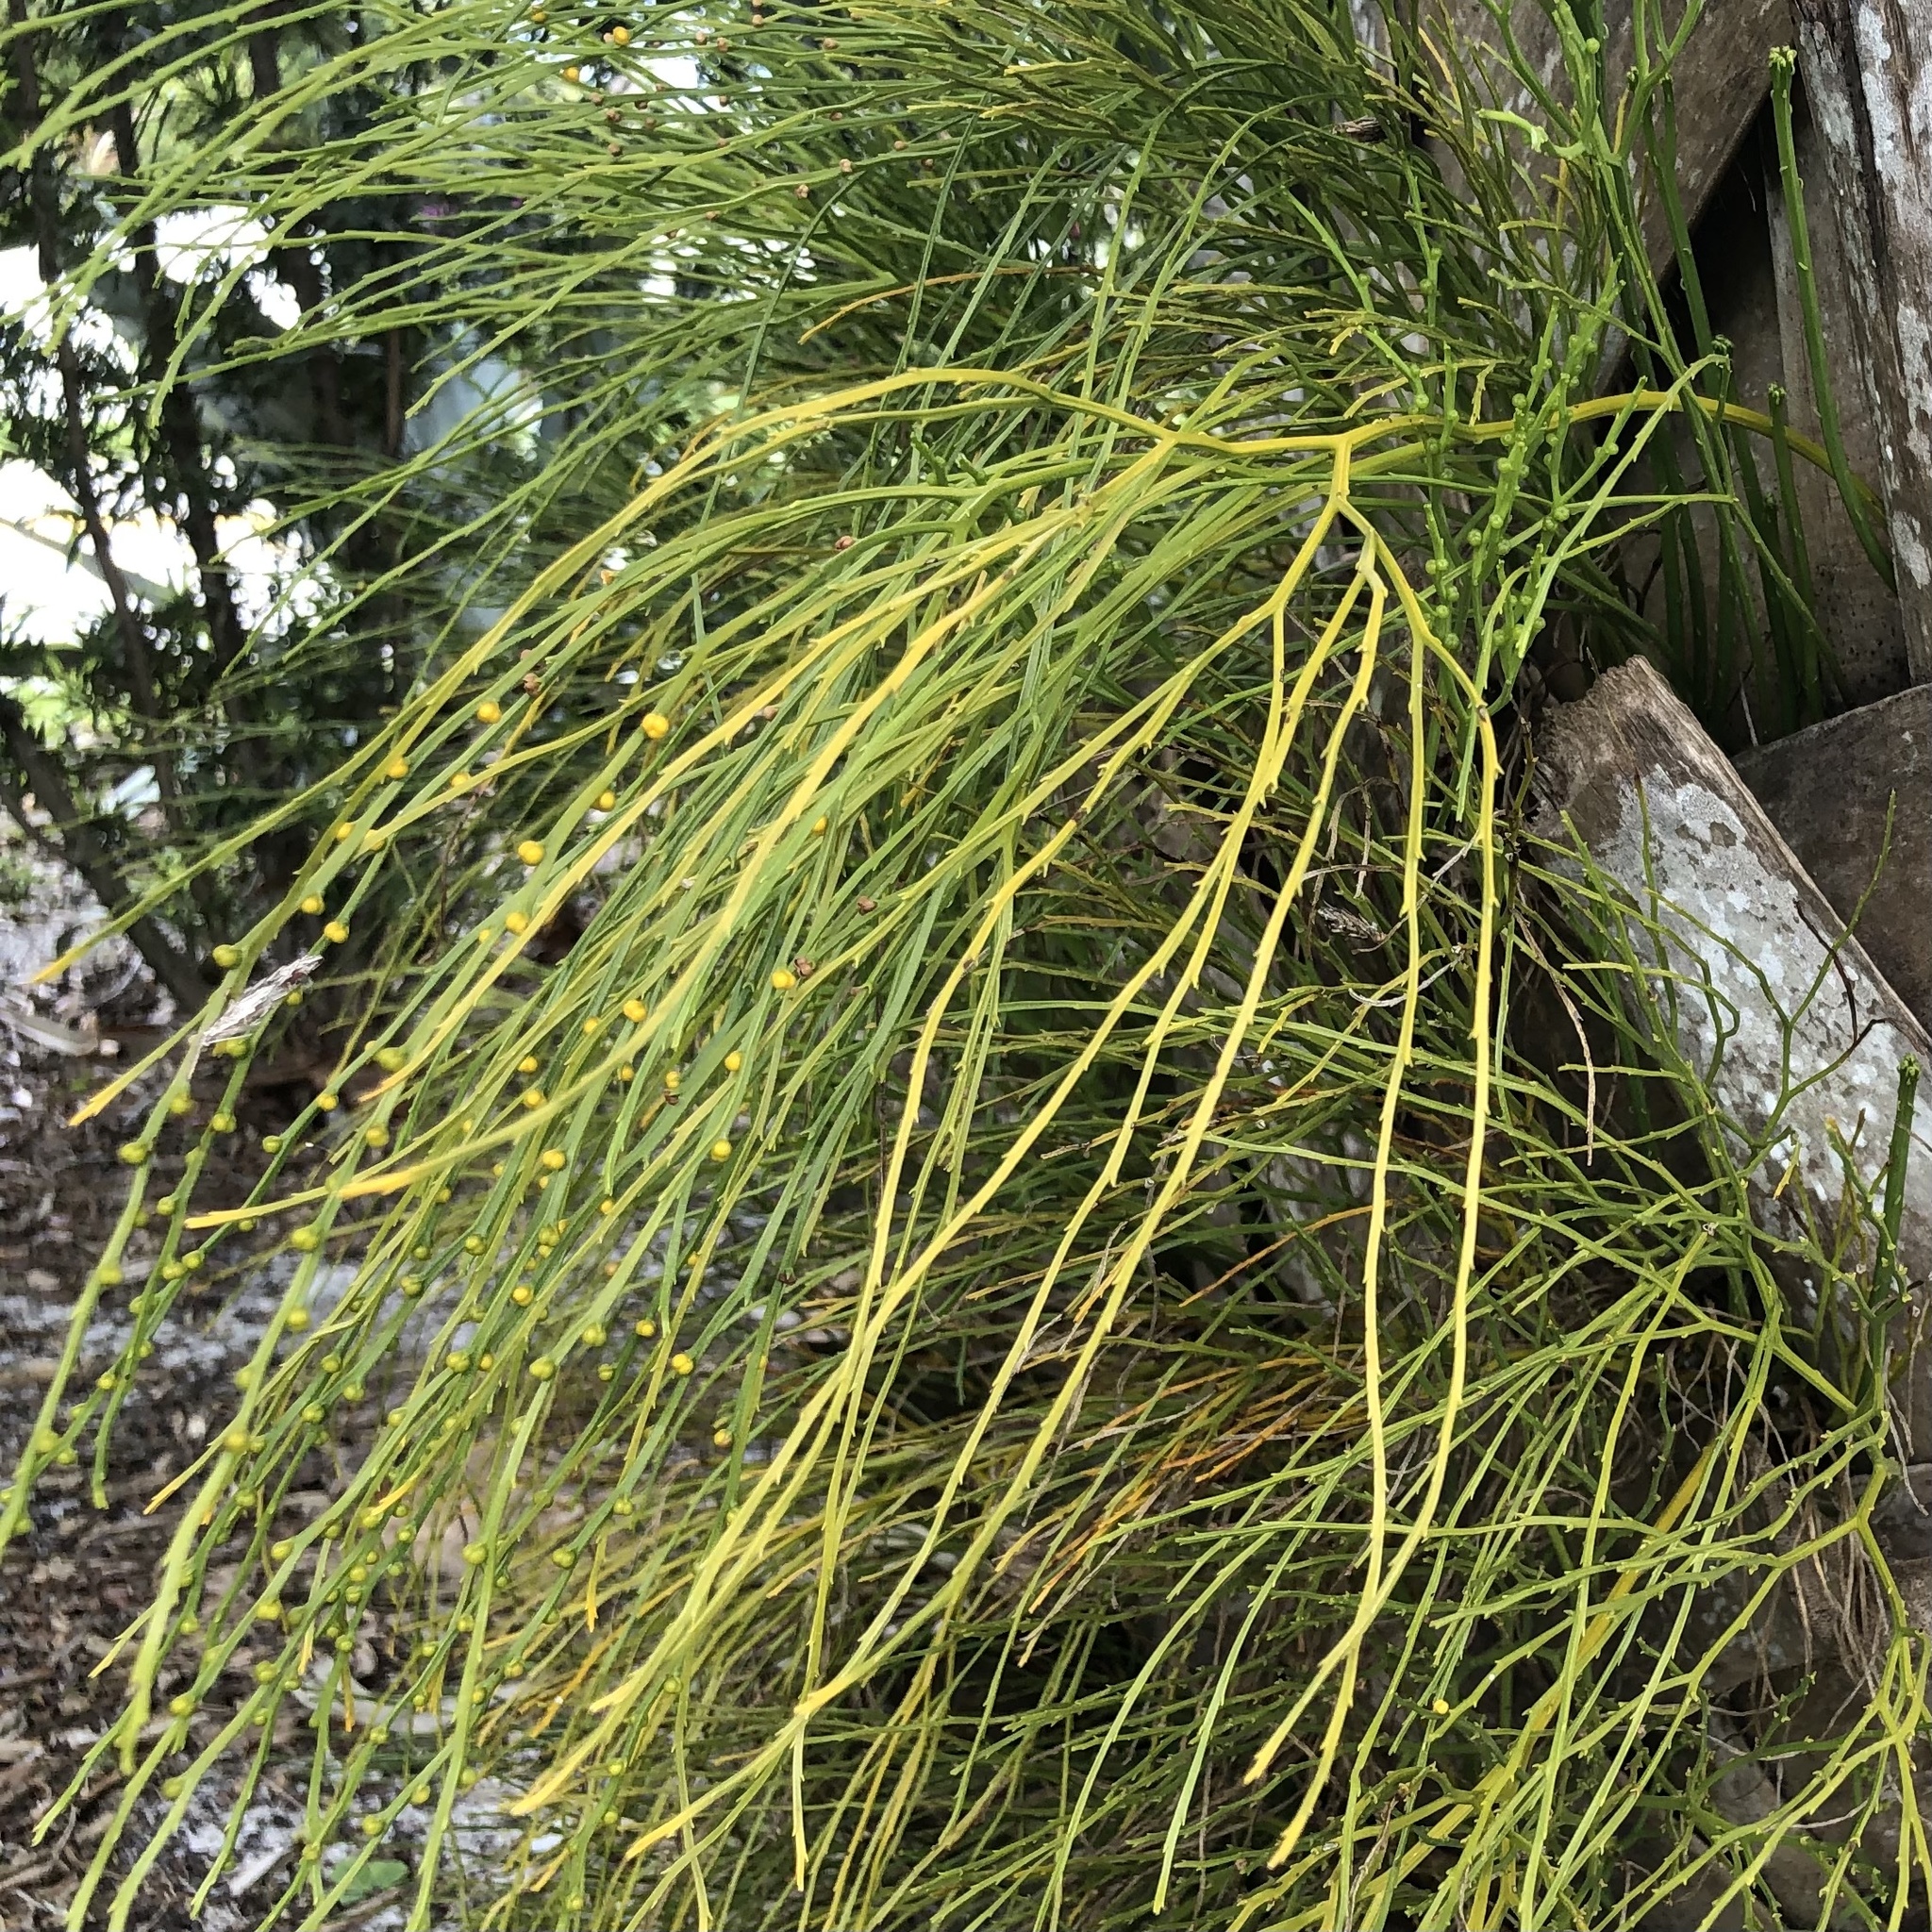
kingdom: Plantae
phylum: Tracheophyta
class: Polypodiopsida
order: Psilotales
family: Psilotaceae
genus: Psilotum
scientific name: Psilotum nudum
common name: Skeleton fork fern
